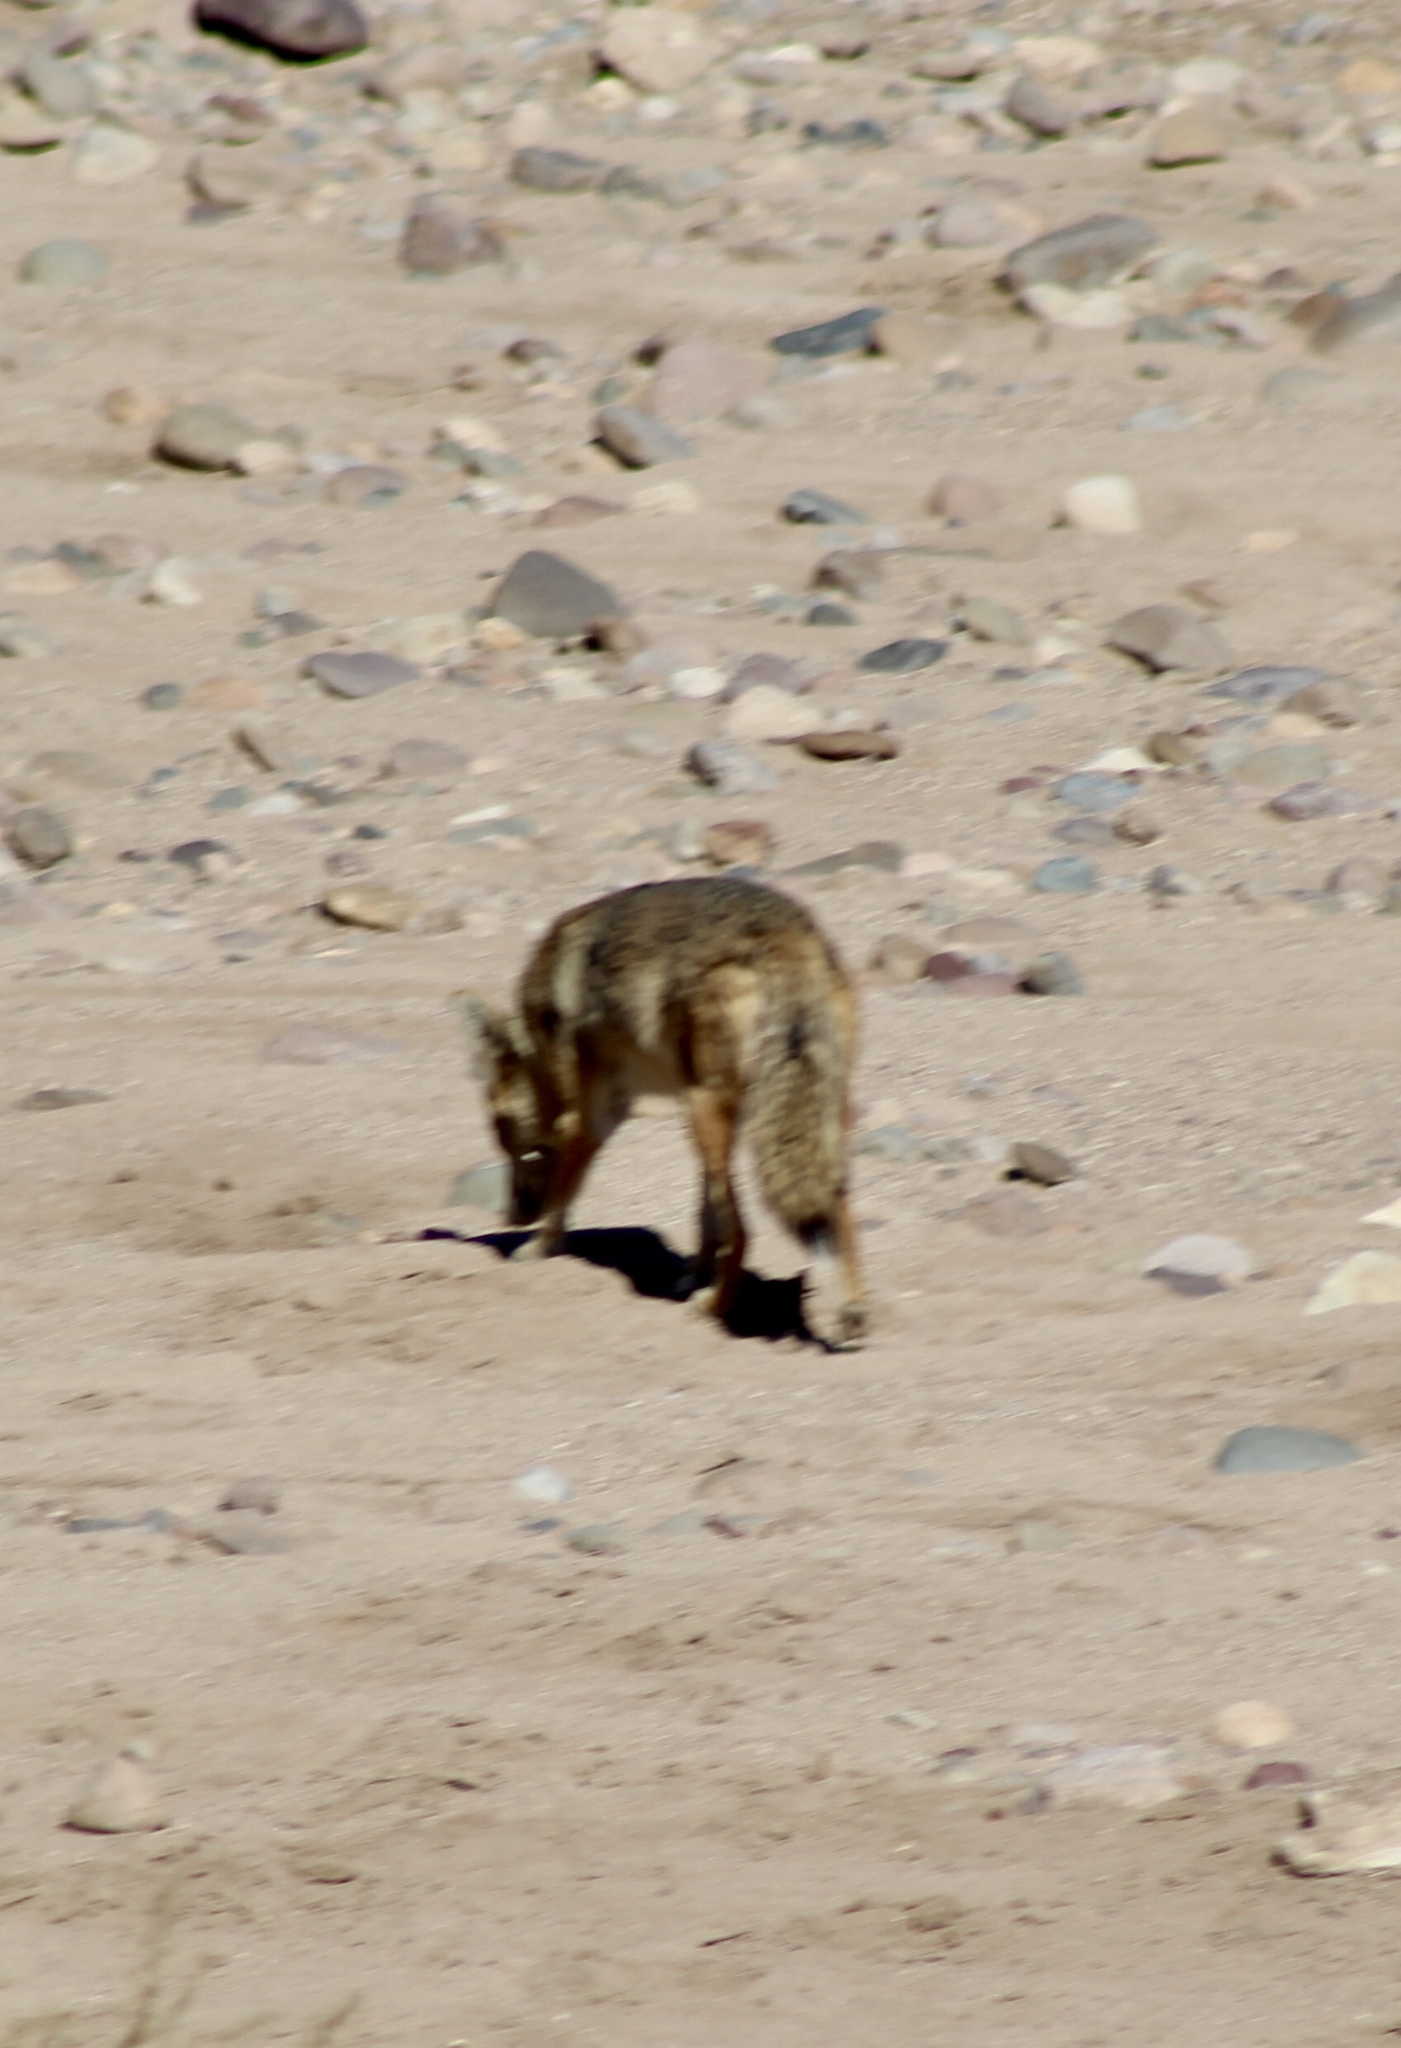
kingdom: Animalia
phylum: Chordata
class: Mammalia
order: Carnivora
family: Canidae
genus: Canis
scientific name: Canis latrans
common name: Coyote
